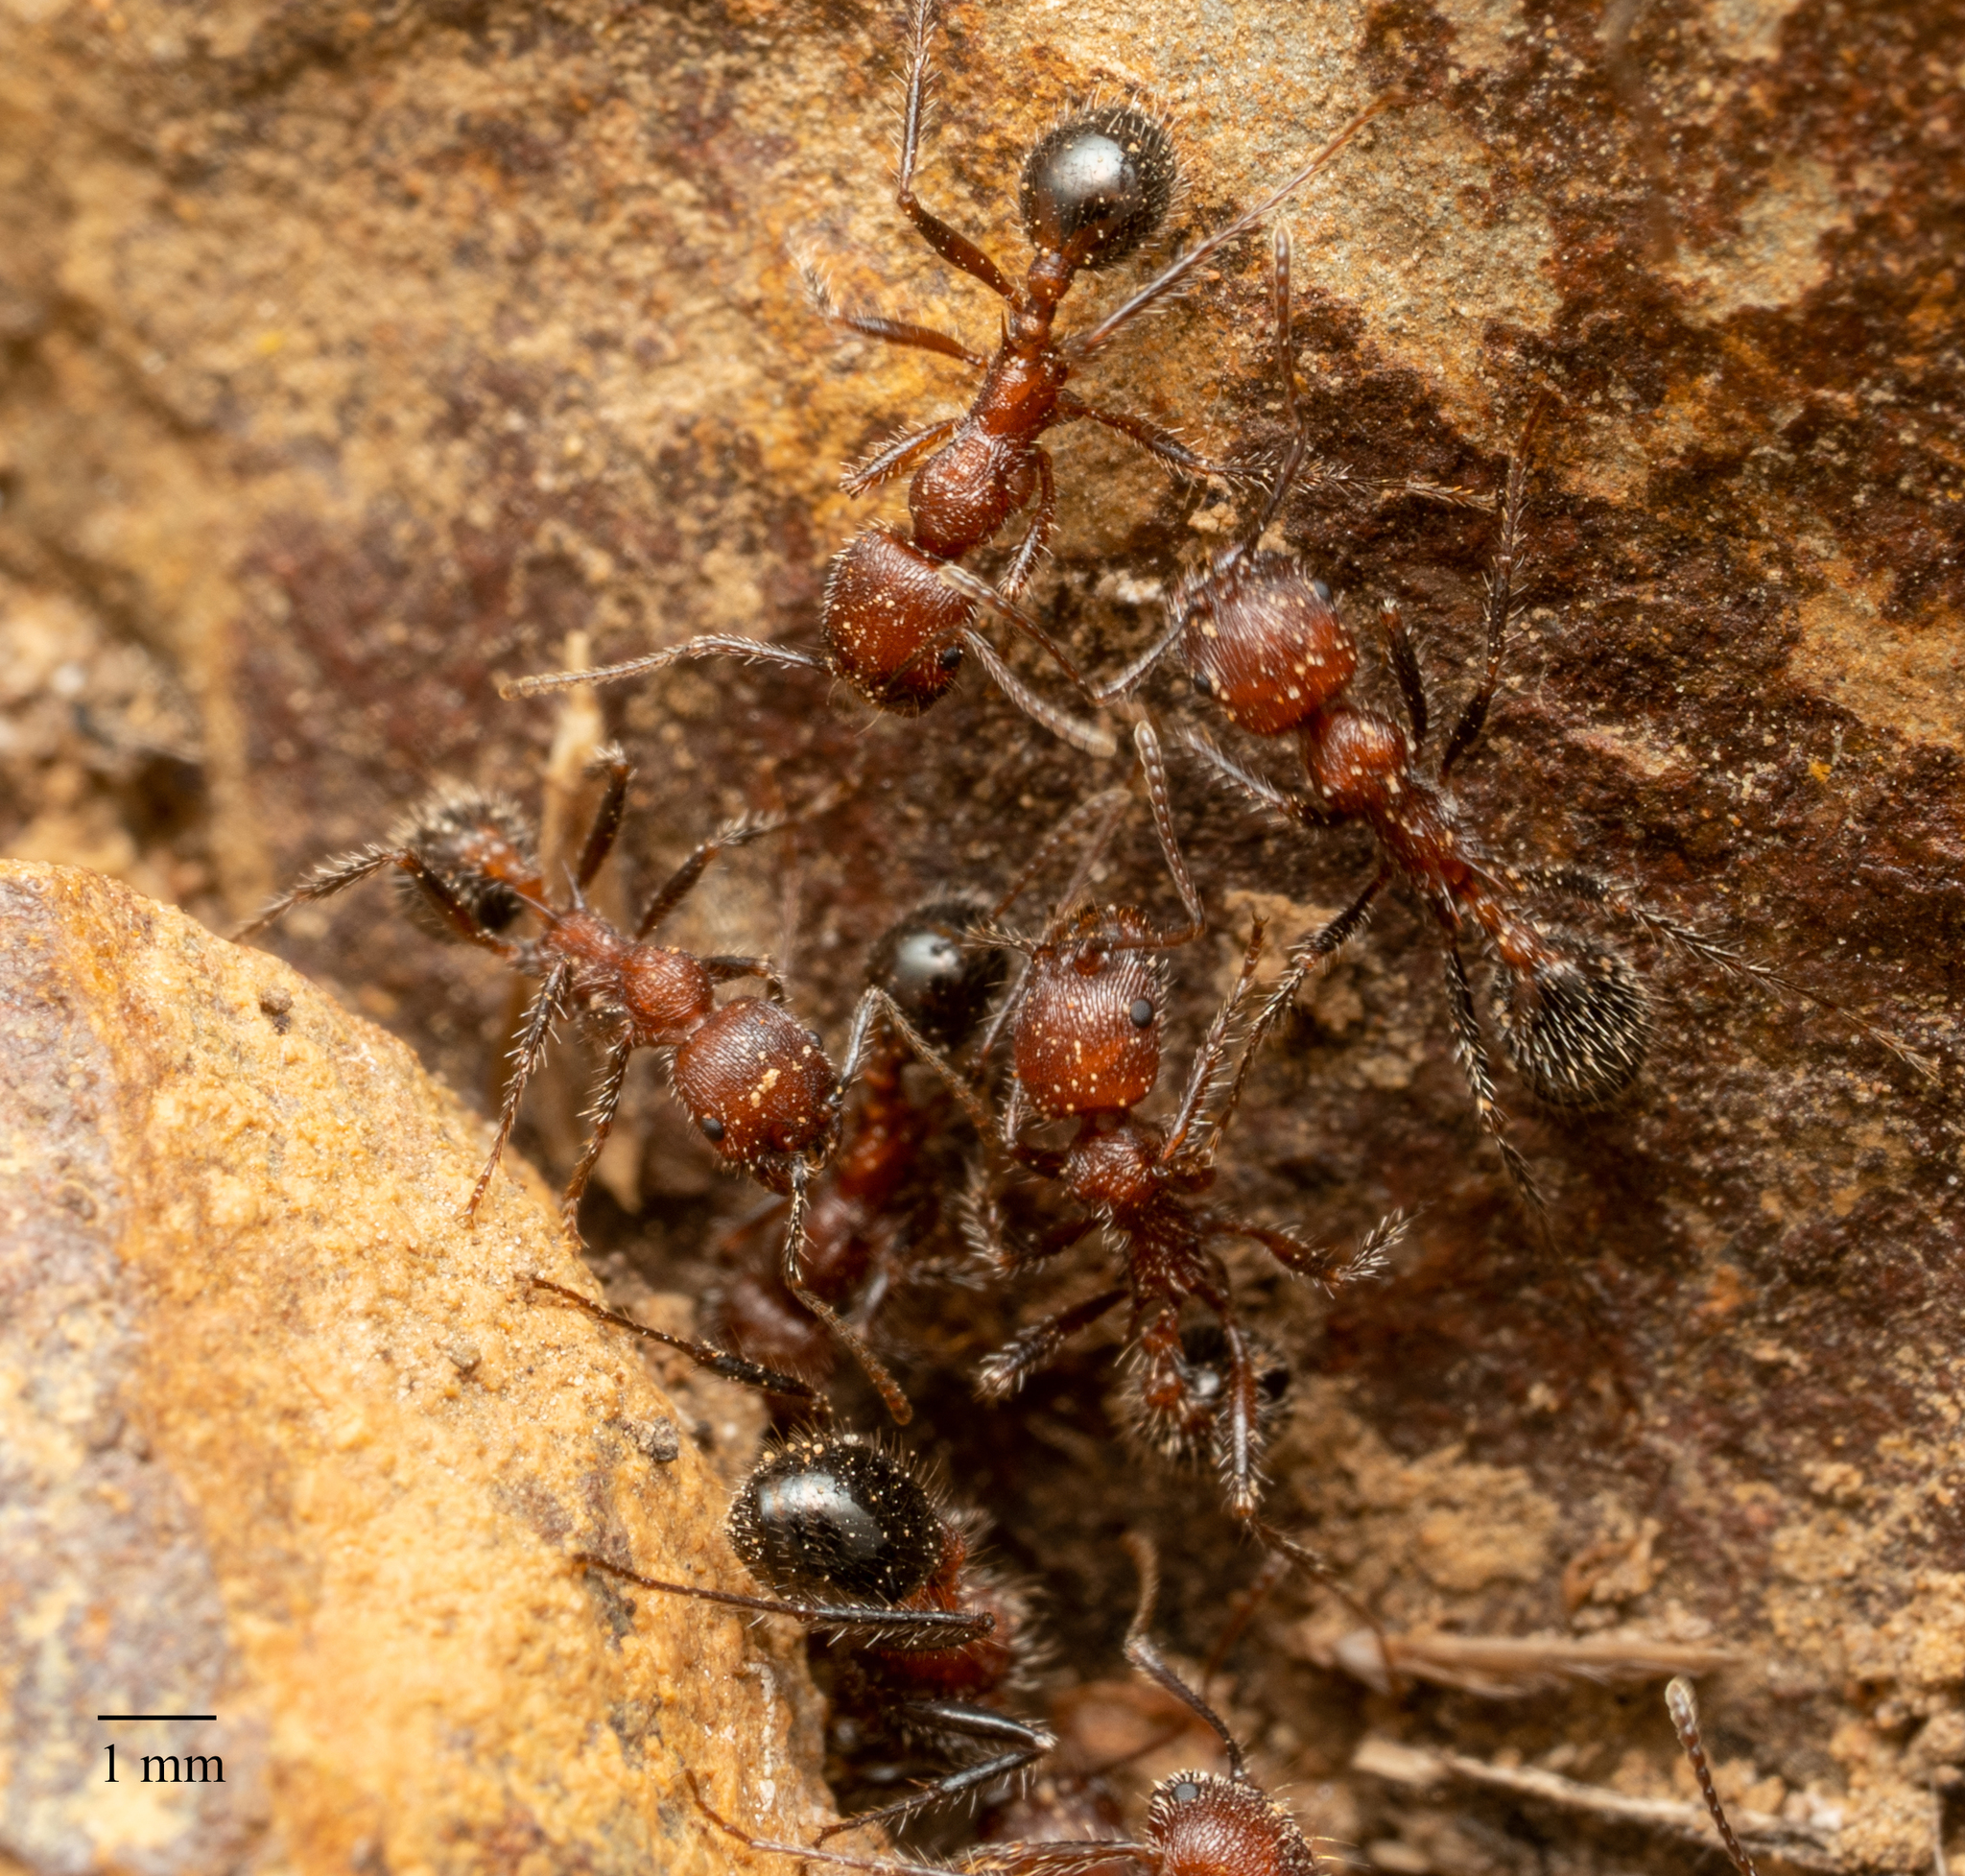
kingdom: Animalia
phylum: Arthropoda
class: Insecta
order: Hymenoptera
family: Formicidae
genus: Veromessor
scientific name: Veromessor andrei
